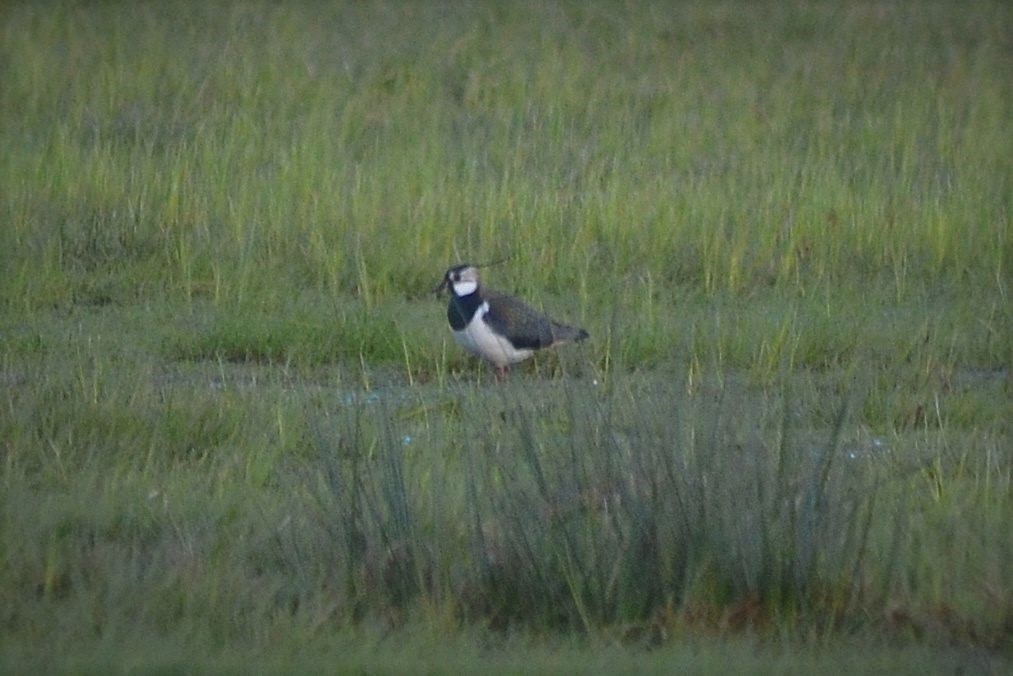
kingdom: Animalia
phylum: Chordata
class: Aves
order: Charadriiformes
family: Charadriidae
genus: Vanellus
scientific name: Vanellus vanellus
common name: Northern lapwing
